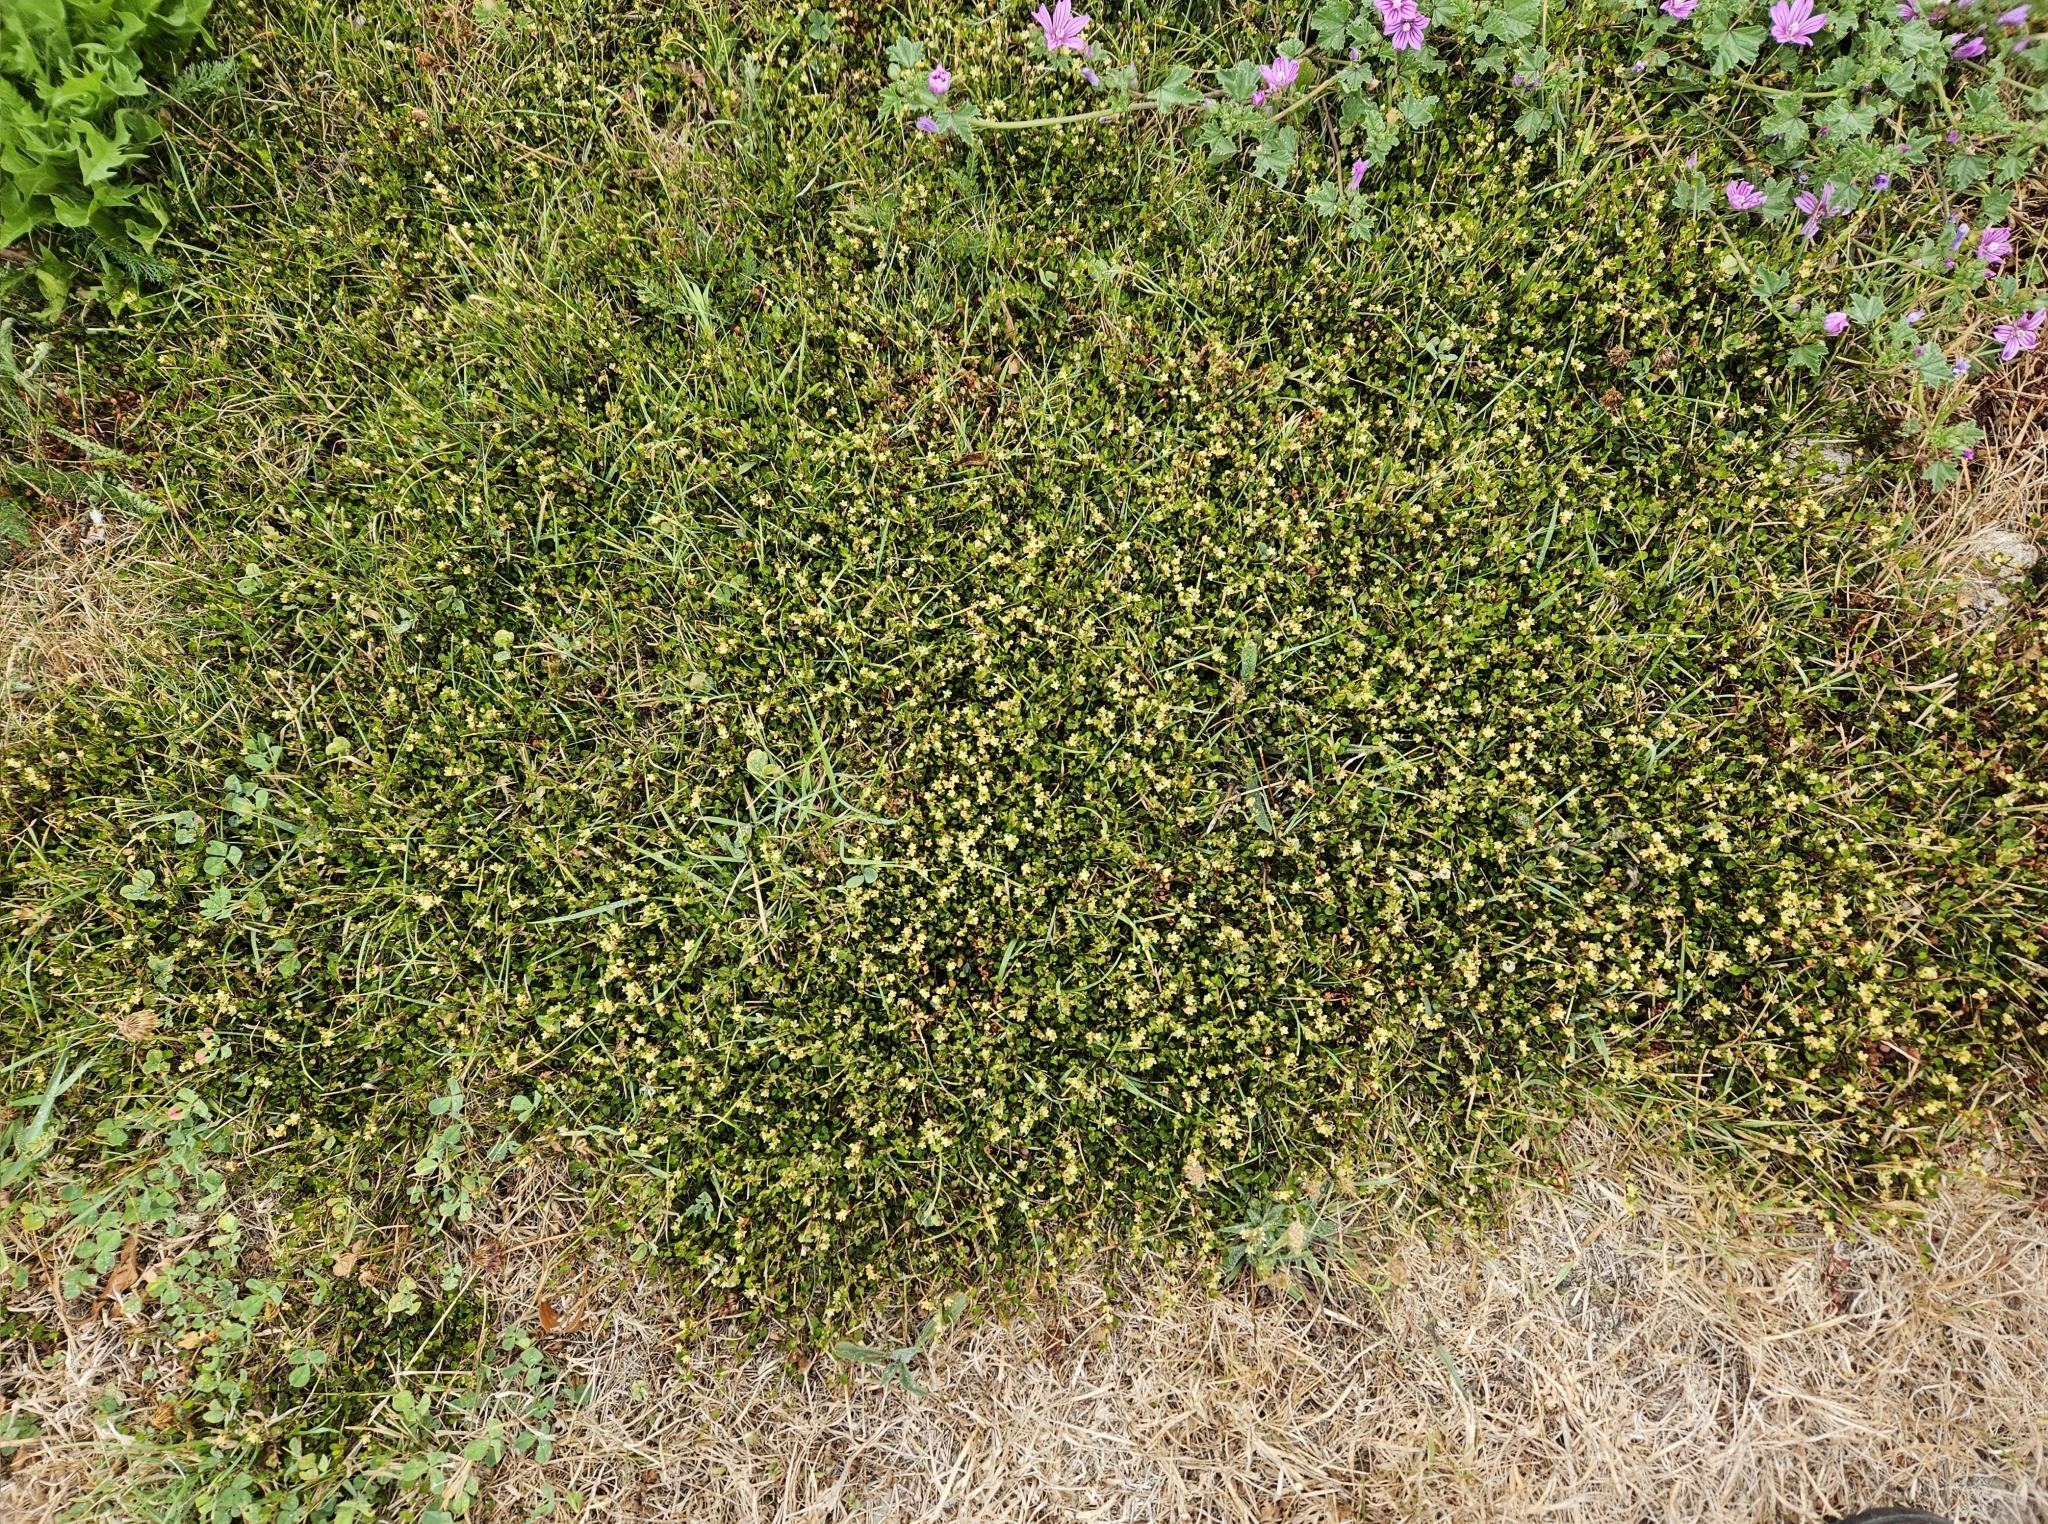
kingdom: Plantae
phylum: Tracheophyta
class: Magnoliopsida
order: Caryophyllales
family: Polygonaceae
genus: Muehlenbeckia
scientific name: Muehlenbeckia axillaris
